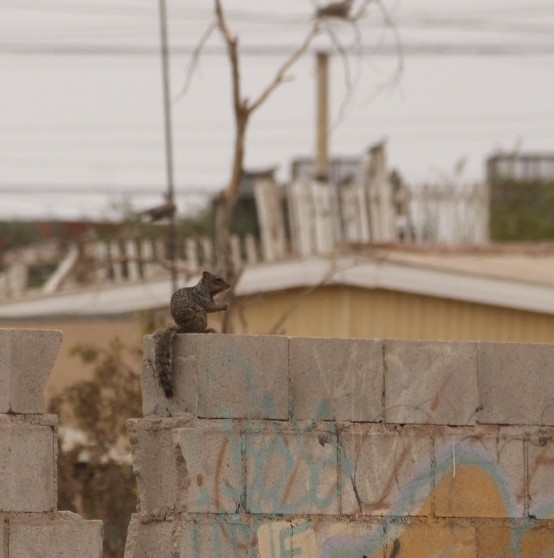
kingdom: Animalia
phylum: Chordata
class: Mammalia
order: Rodentia
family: Sciuridae
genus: Otospermophilus
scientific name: Otospermophilus beecheyi
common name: California ground squirrel
